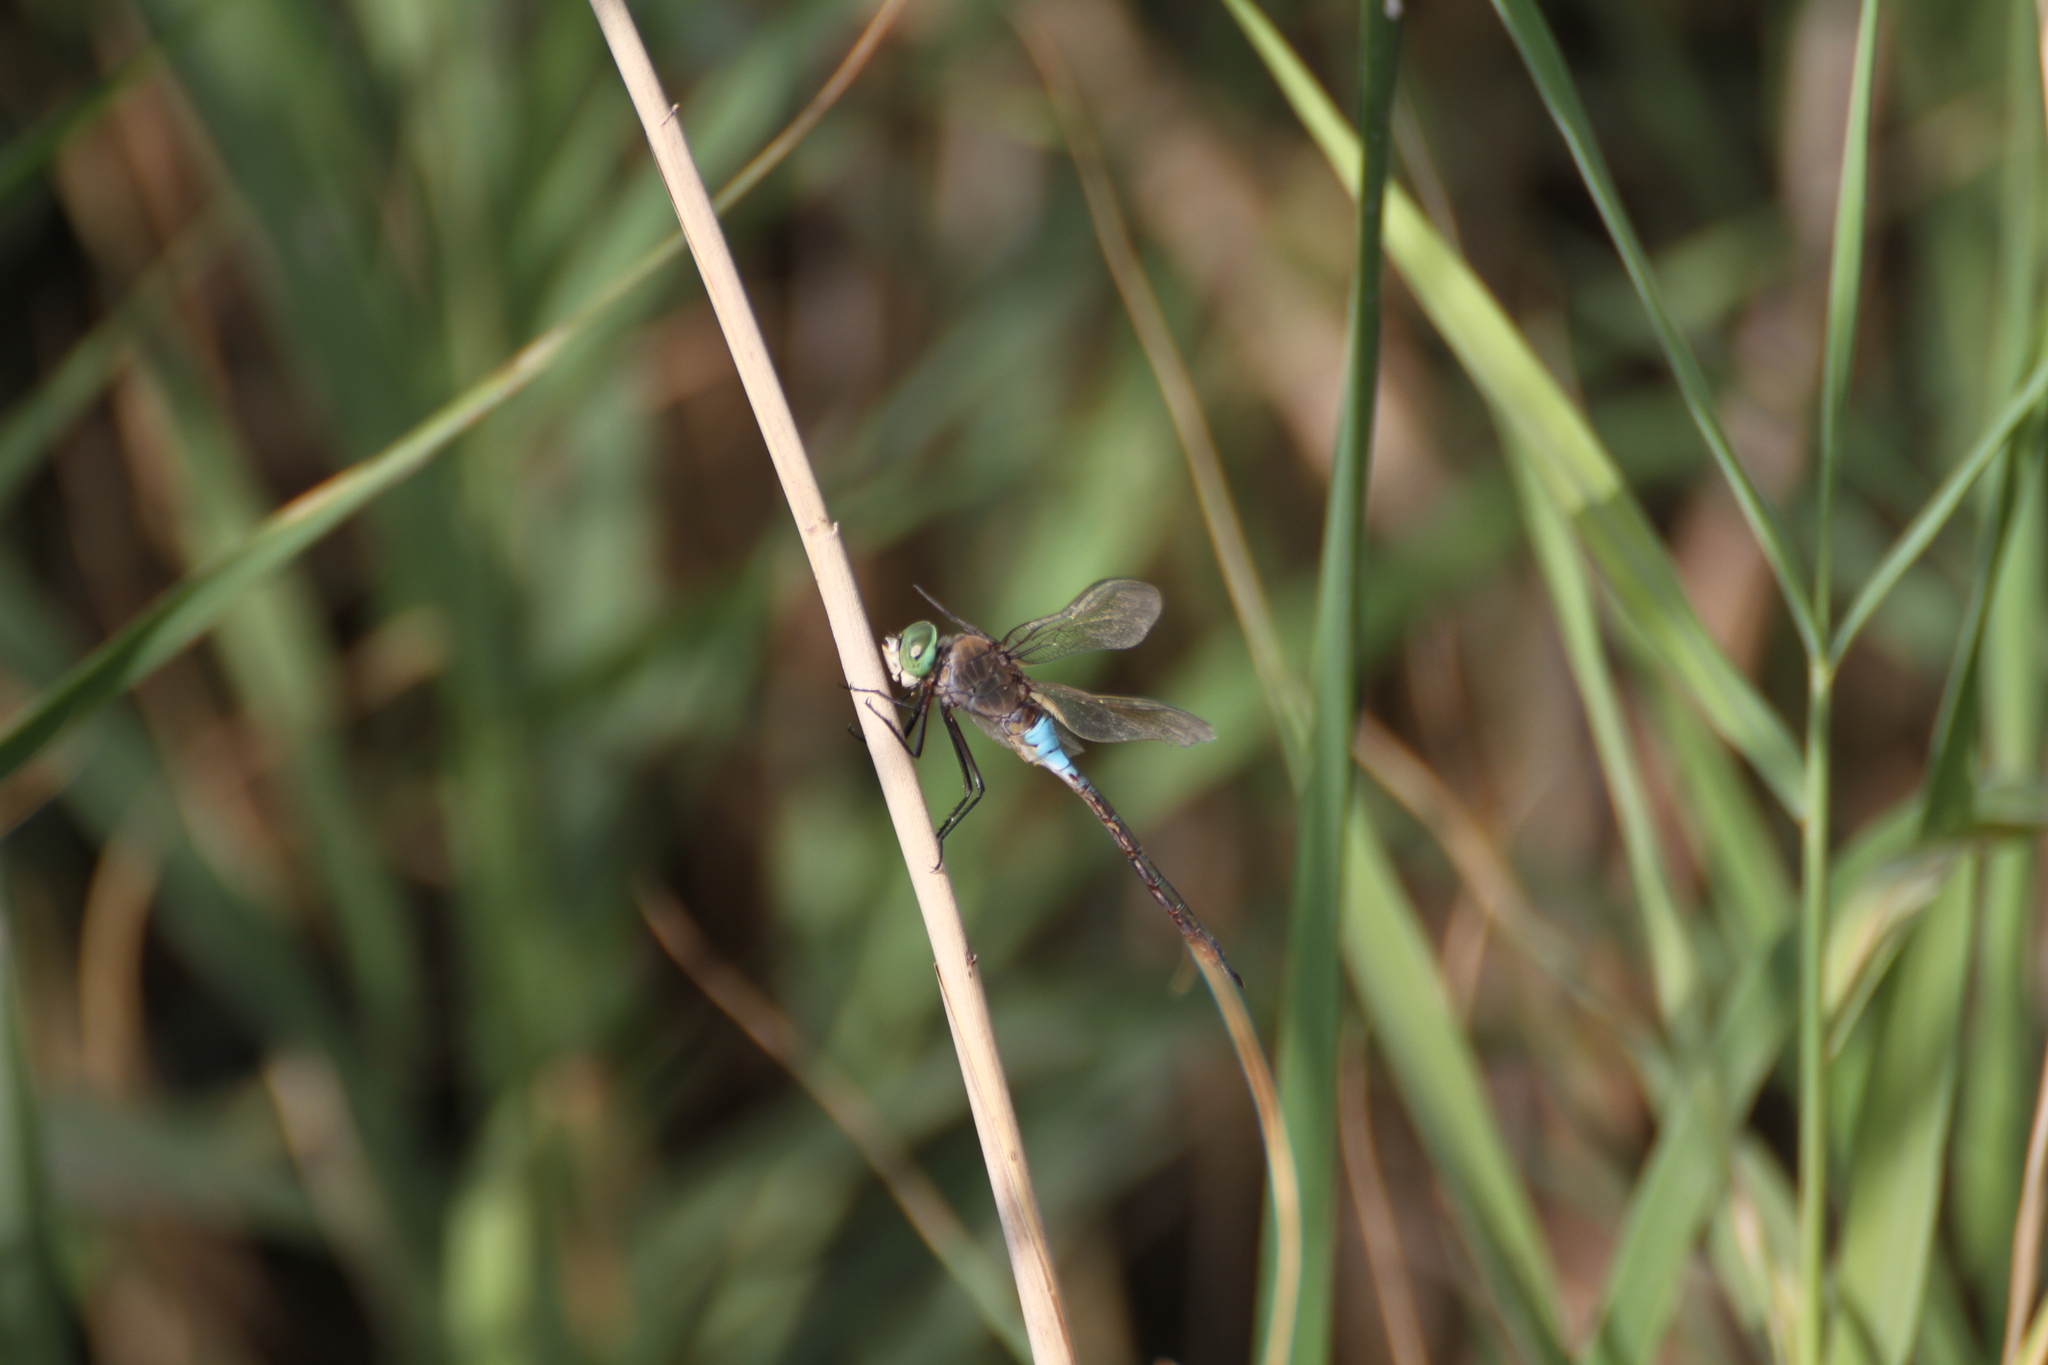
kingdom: Animalia
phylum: Arthropoda
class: Insecta
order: Odonata
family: Aeshnidae
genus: Anax
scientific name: Anax parthenope
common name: Lesser emperor
